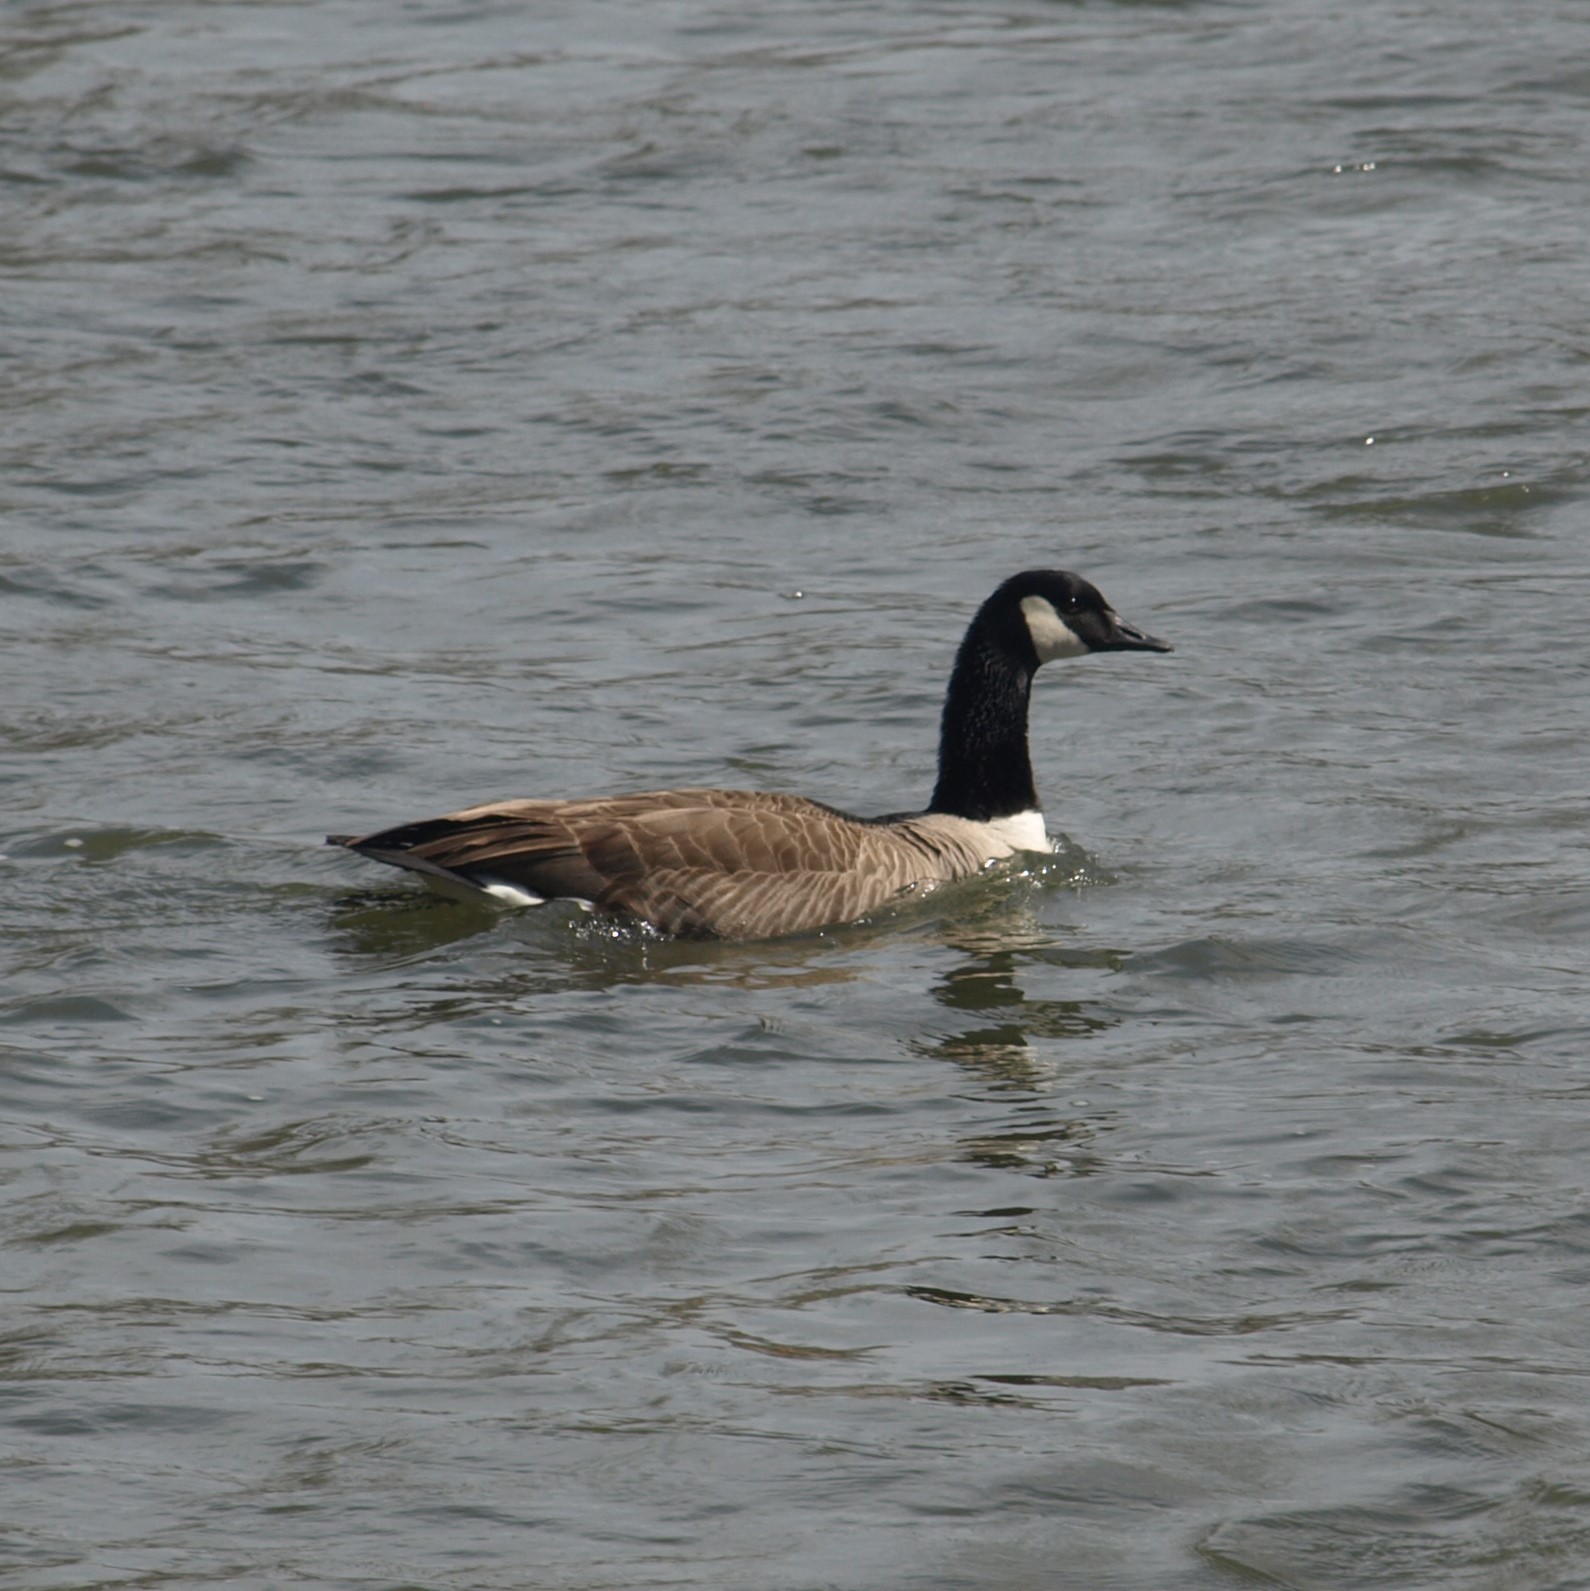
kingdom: Animalia
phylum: Chordata
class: Aves
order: Anseriformes
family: Anatidae
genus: Branta
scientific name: Branta canadensis
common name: Canada goose
